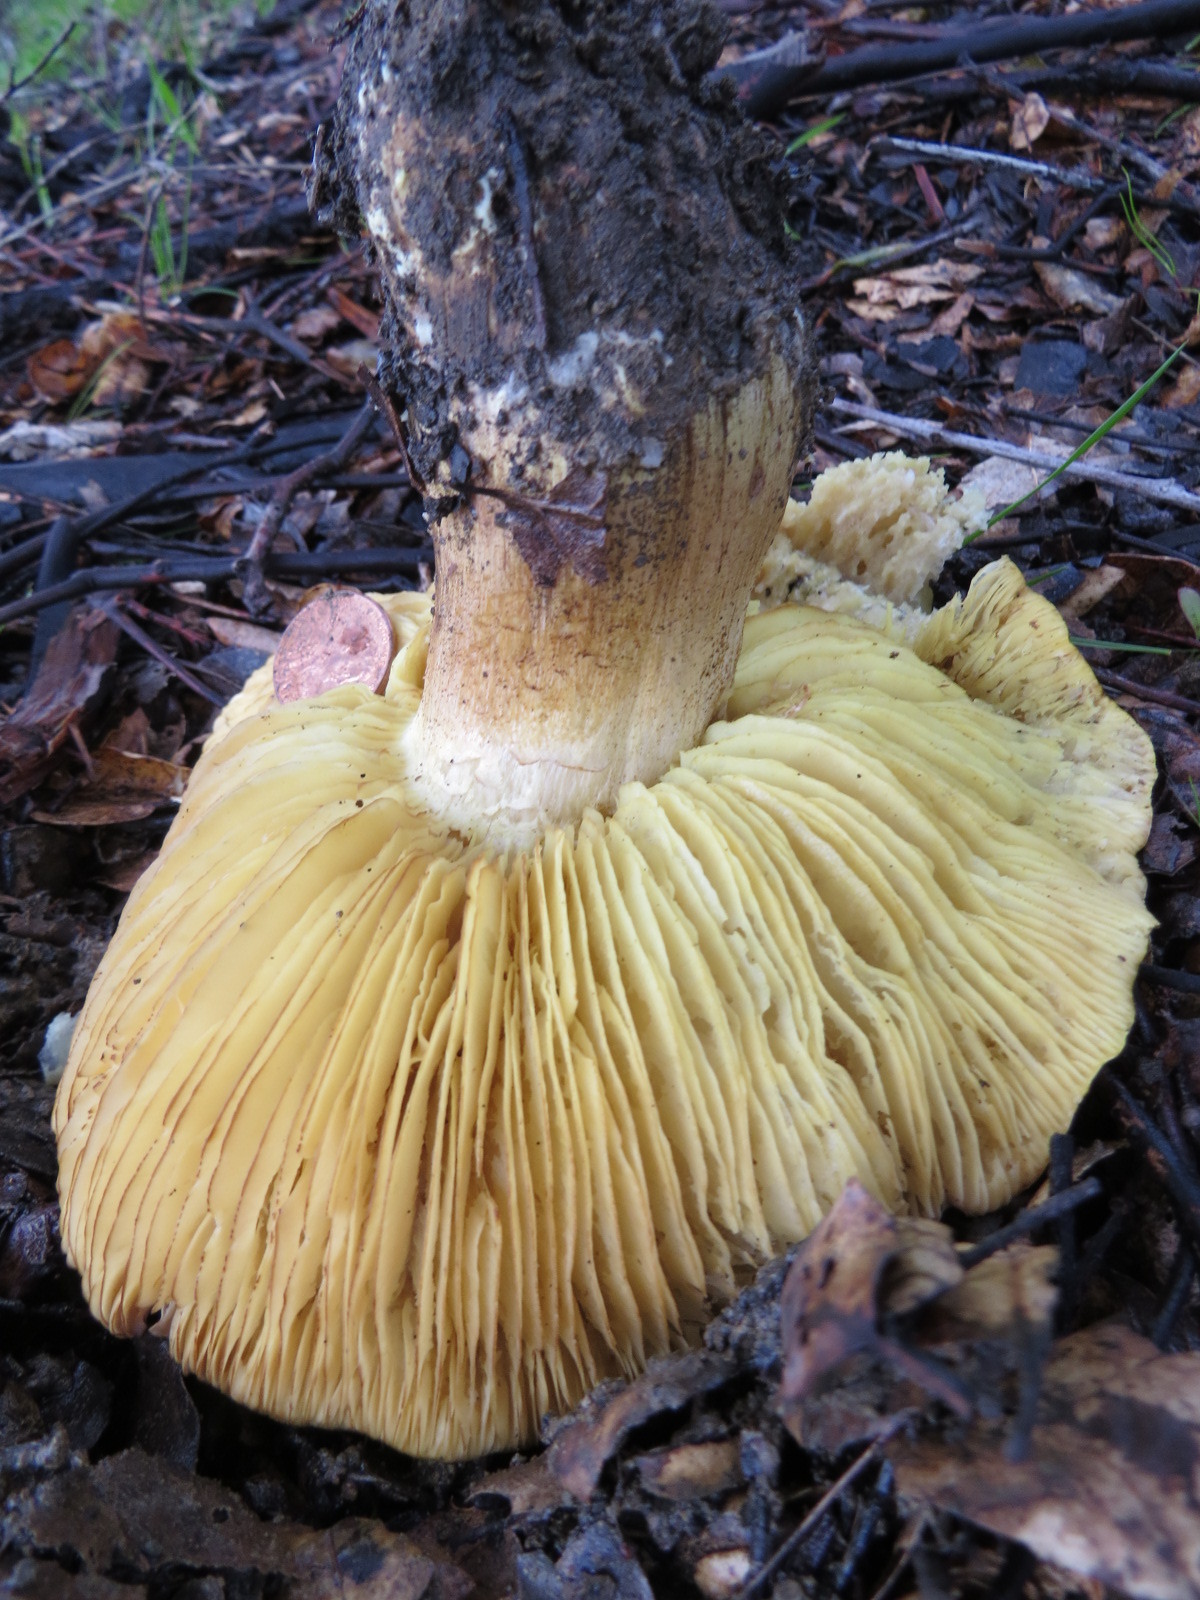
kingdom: Fungi
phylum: Basidiomycota
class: Agaricomycetes
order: Agaricales
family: Tricholomataceae
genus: Melanoleuca
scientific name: Melanoleuca yatesii
